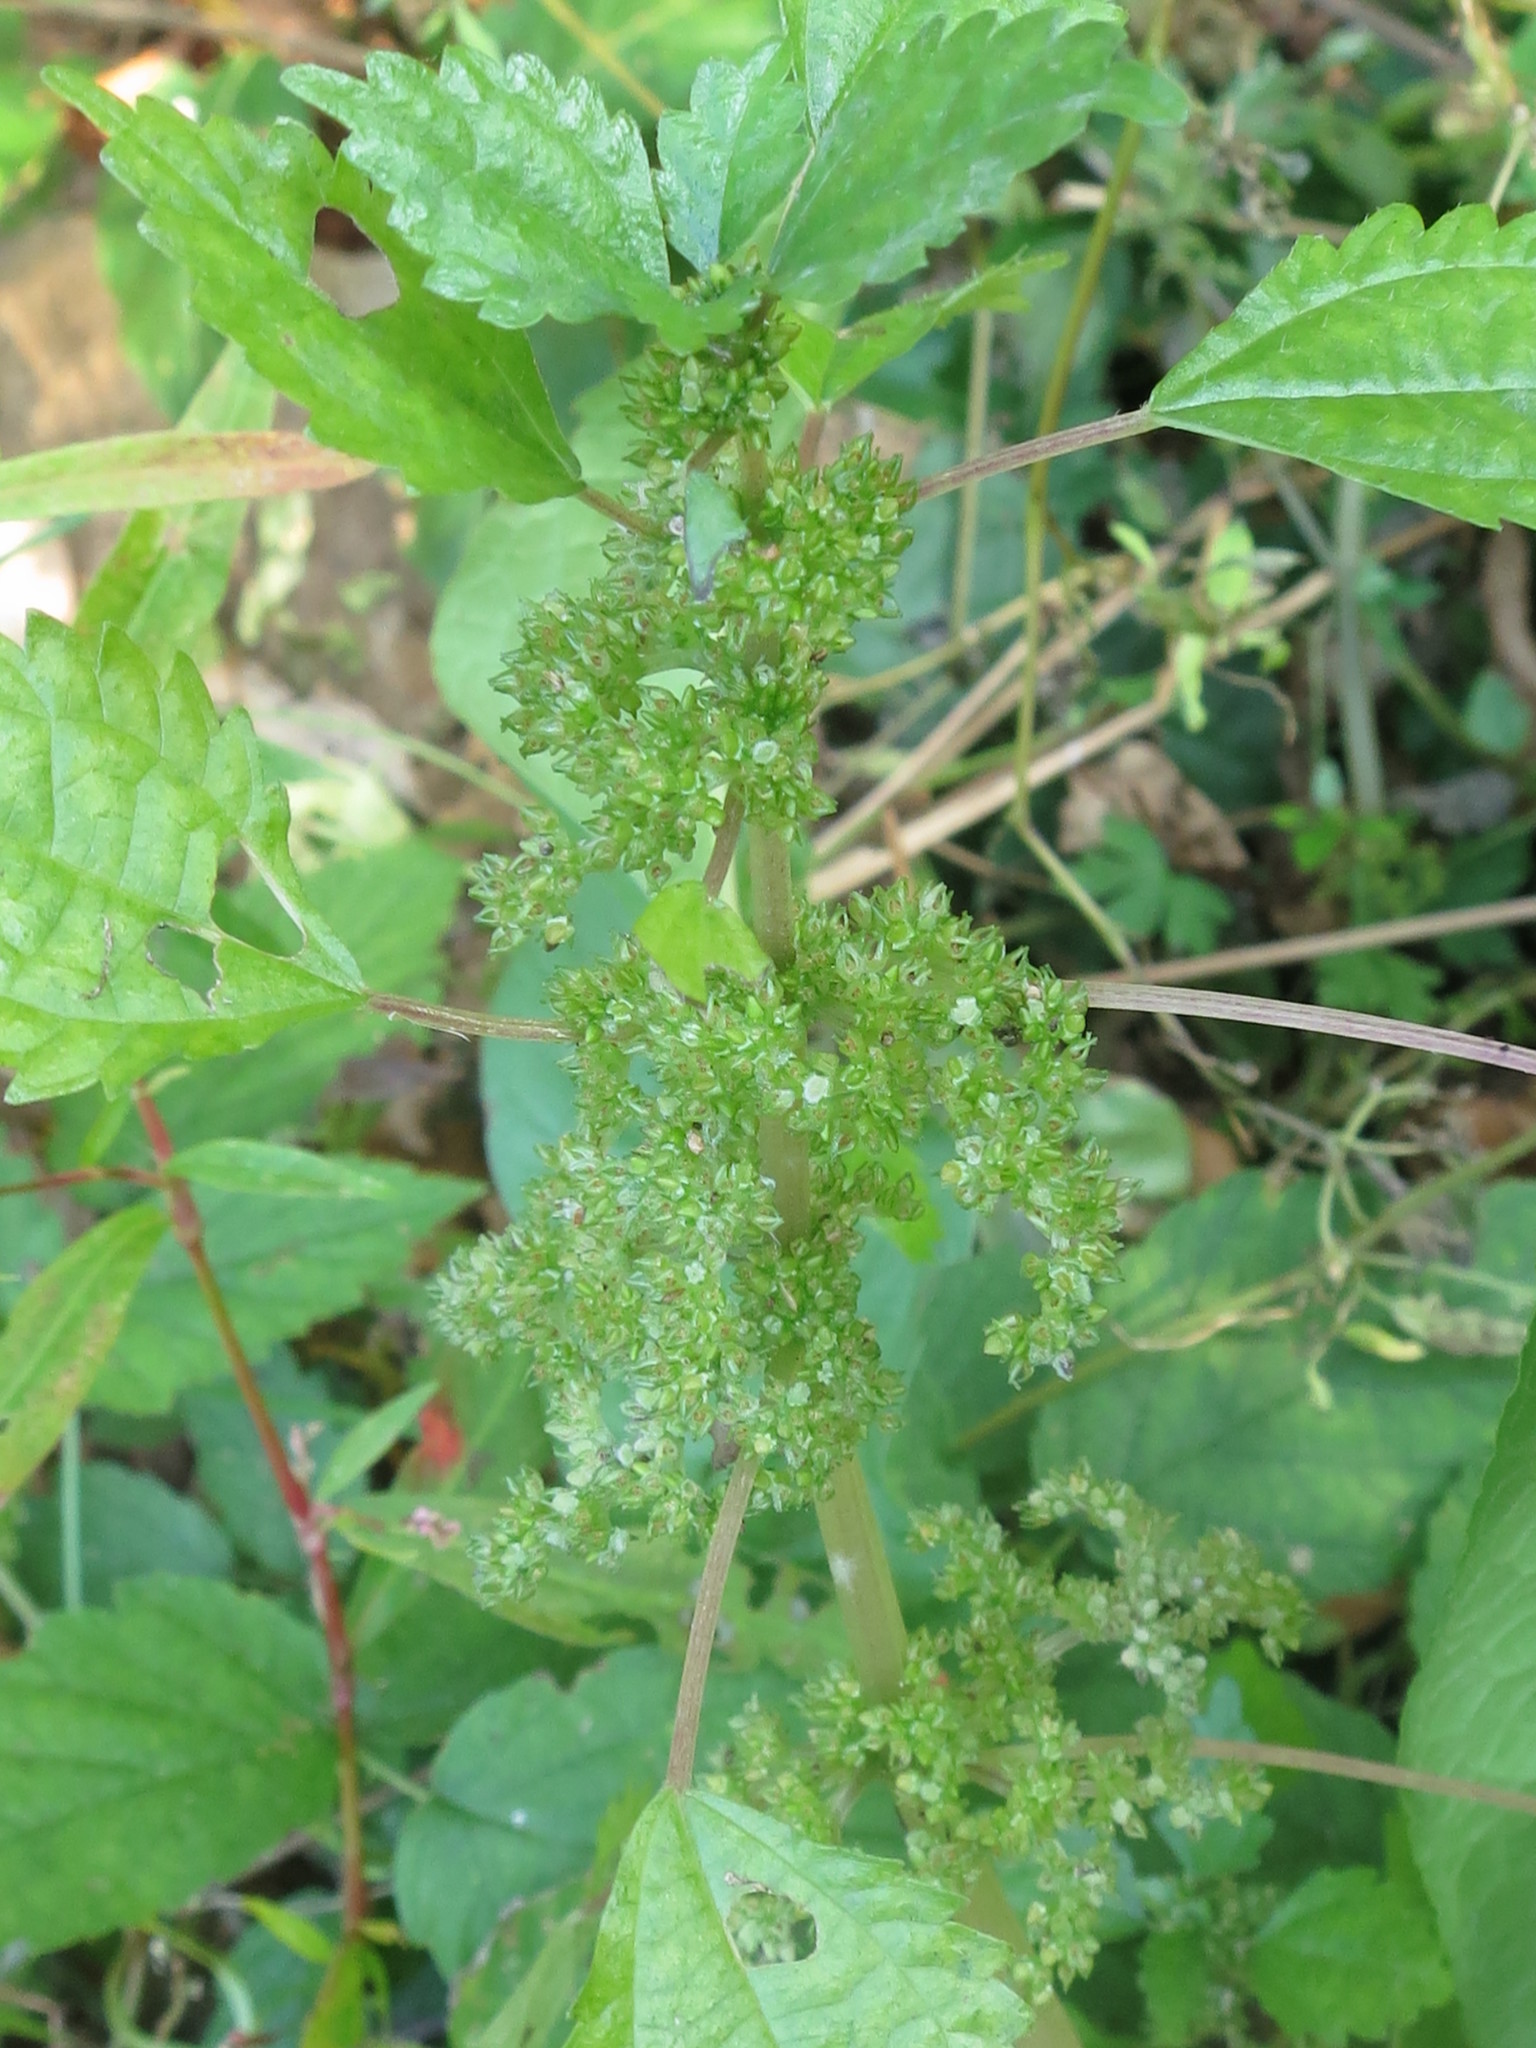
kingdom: Plantae
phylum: Tracheophyta
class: Magnoliopsida
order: Rosales
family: Urticaceae
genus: Pilea
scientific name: Pilea pumila
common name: Clearweed
